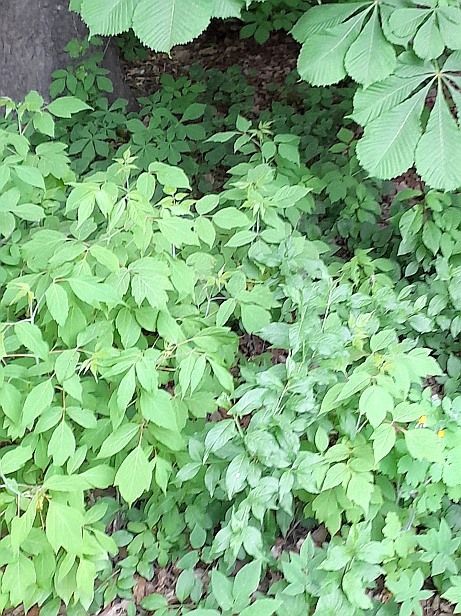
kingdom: Plantae
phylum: Tracheophyta
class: Magnoliopsida
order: Sapindales
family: Sapindaceae
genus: Acer
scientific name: Acer negundo
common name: Ashleaf maple
